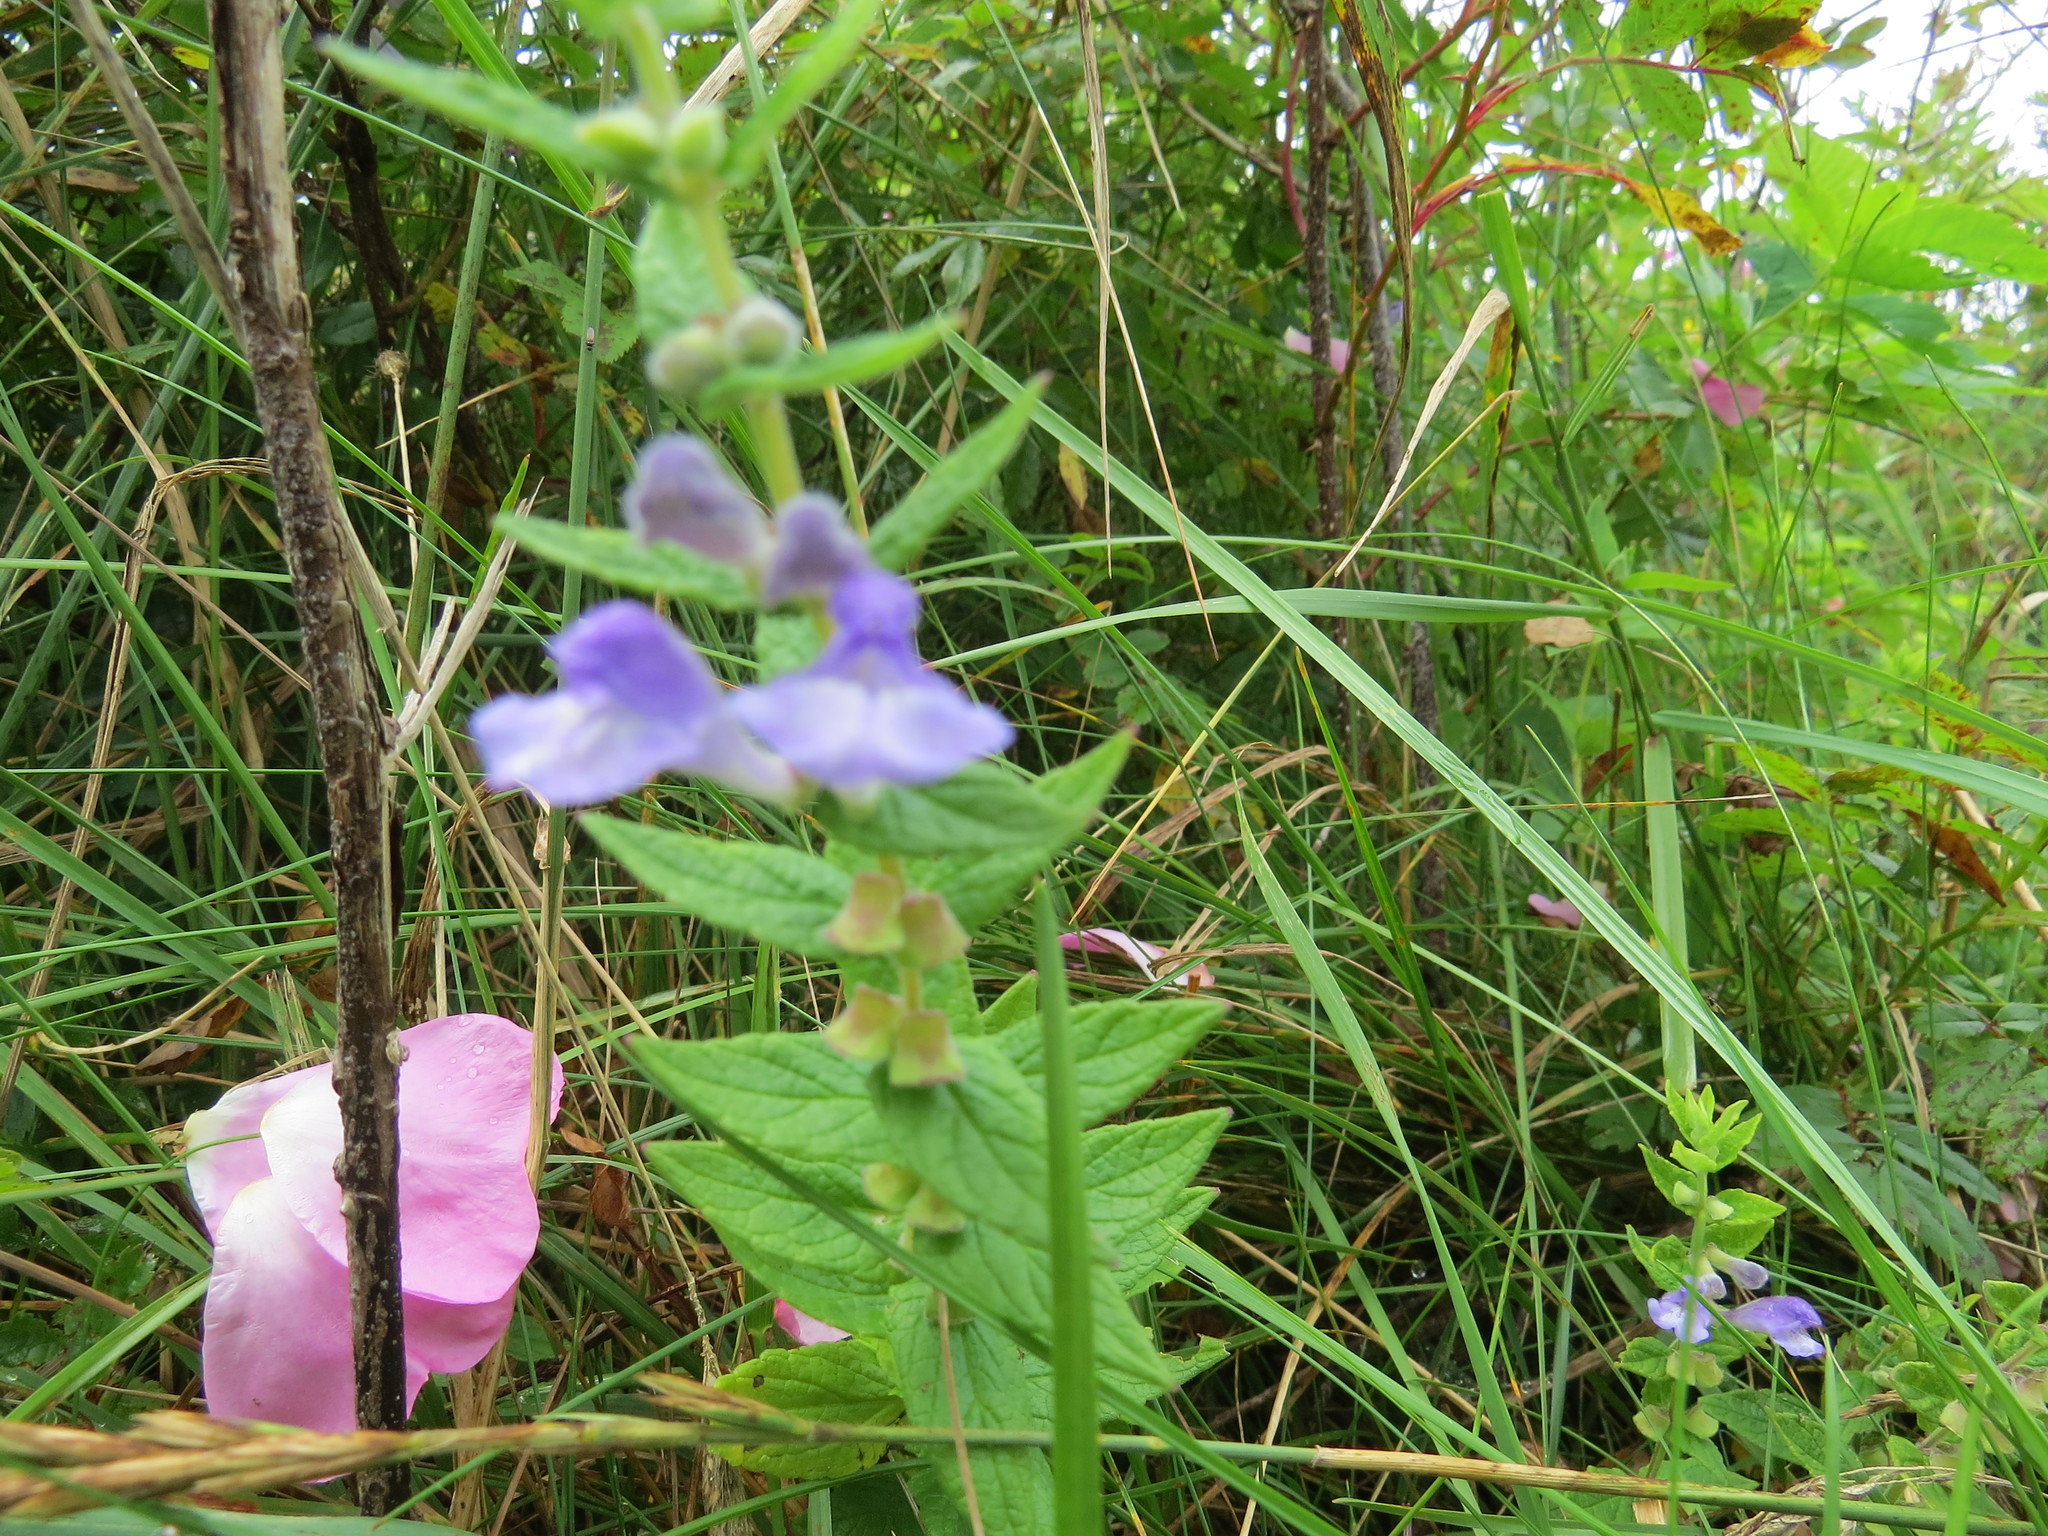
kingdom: Plantae
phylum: Tracheophyta
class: Magnoliopsida
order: Lamiales
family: Lamiaceae
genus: Scutellaria
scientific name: Scutellaria galericulata
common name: Skullcap
